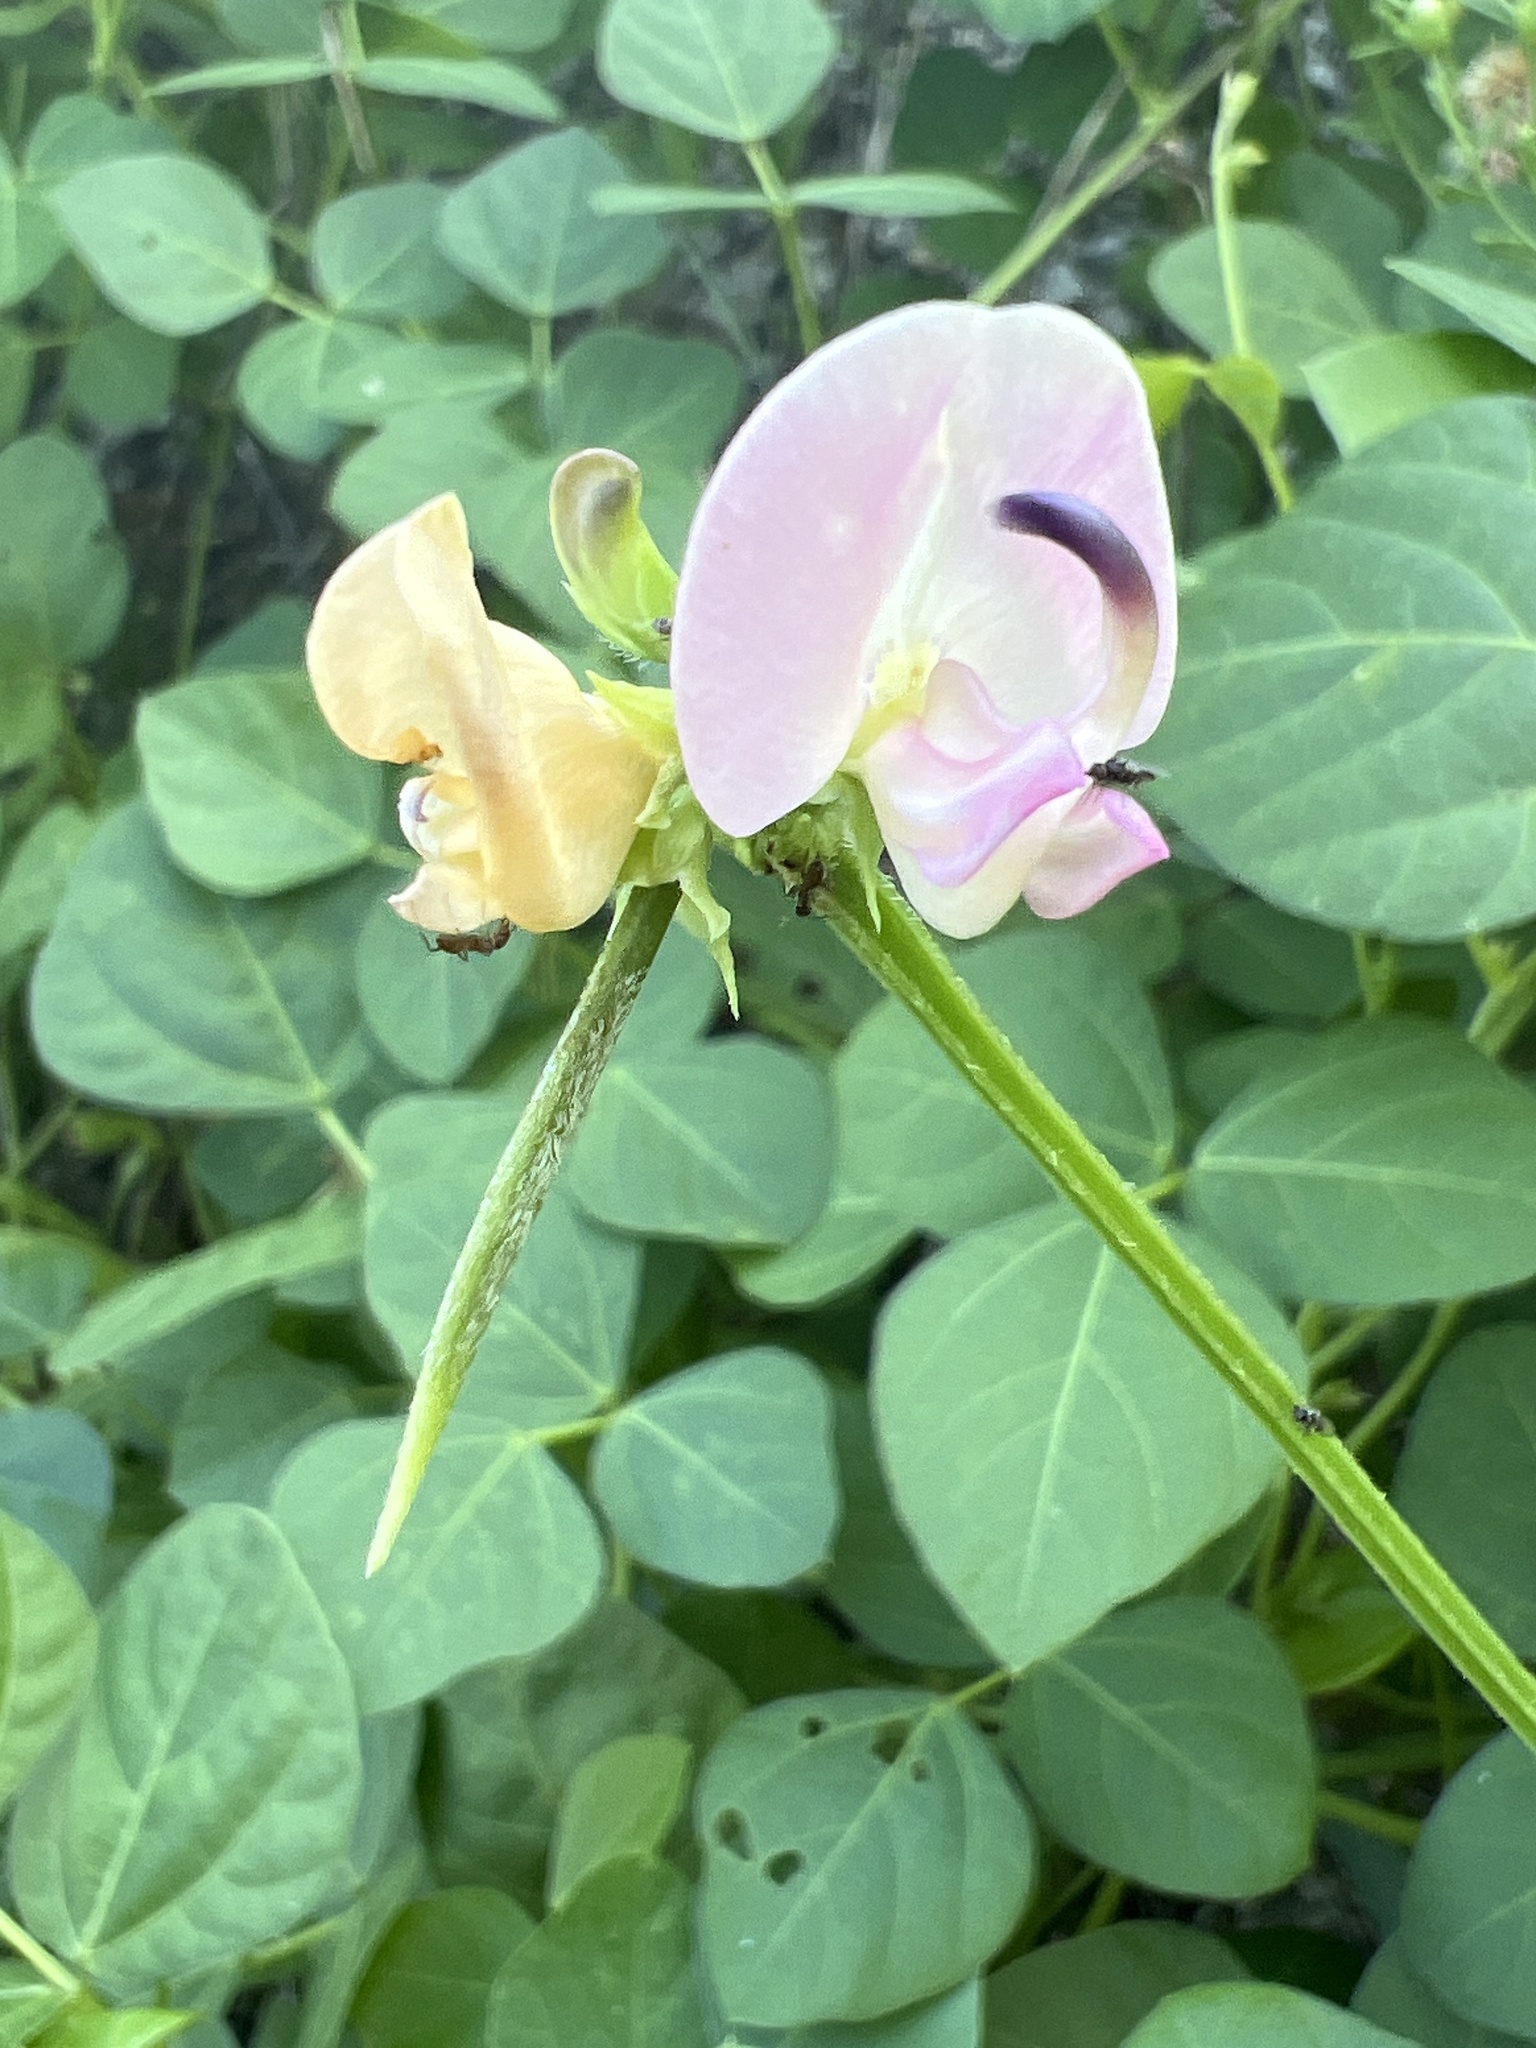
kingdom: Plantae
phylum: Tracheophyta
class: Magnoliopsida
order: Fabales
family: Fabaceae
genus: Strophostyles
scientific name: Strophostyles helvola
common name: Trailing wild bean
